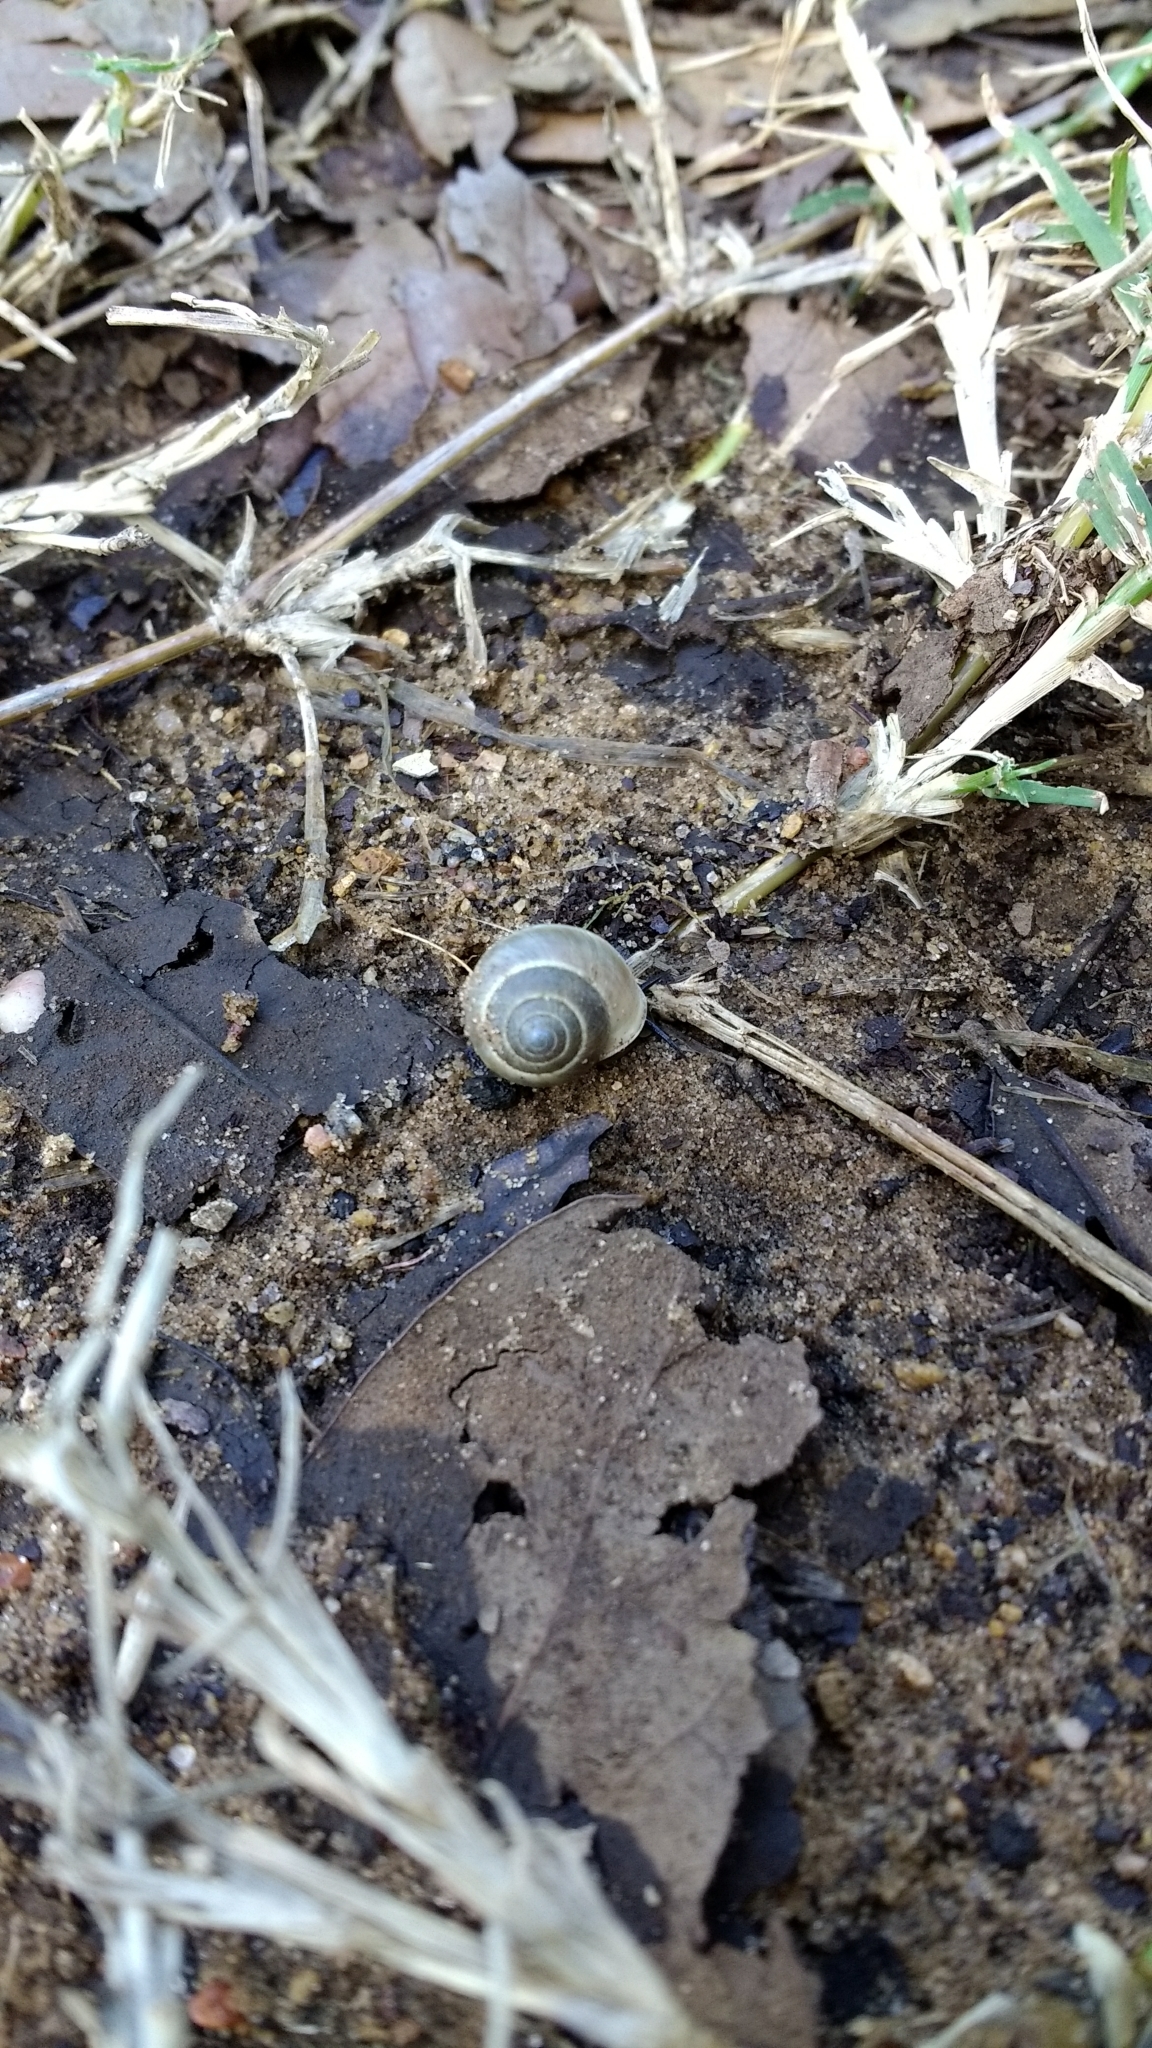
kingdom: Animalia
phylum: Mollusca
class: Gastropoda
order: Cycloneritida
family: Helicinidae
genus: Helicina
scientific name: Helicina orbiculata
